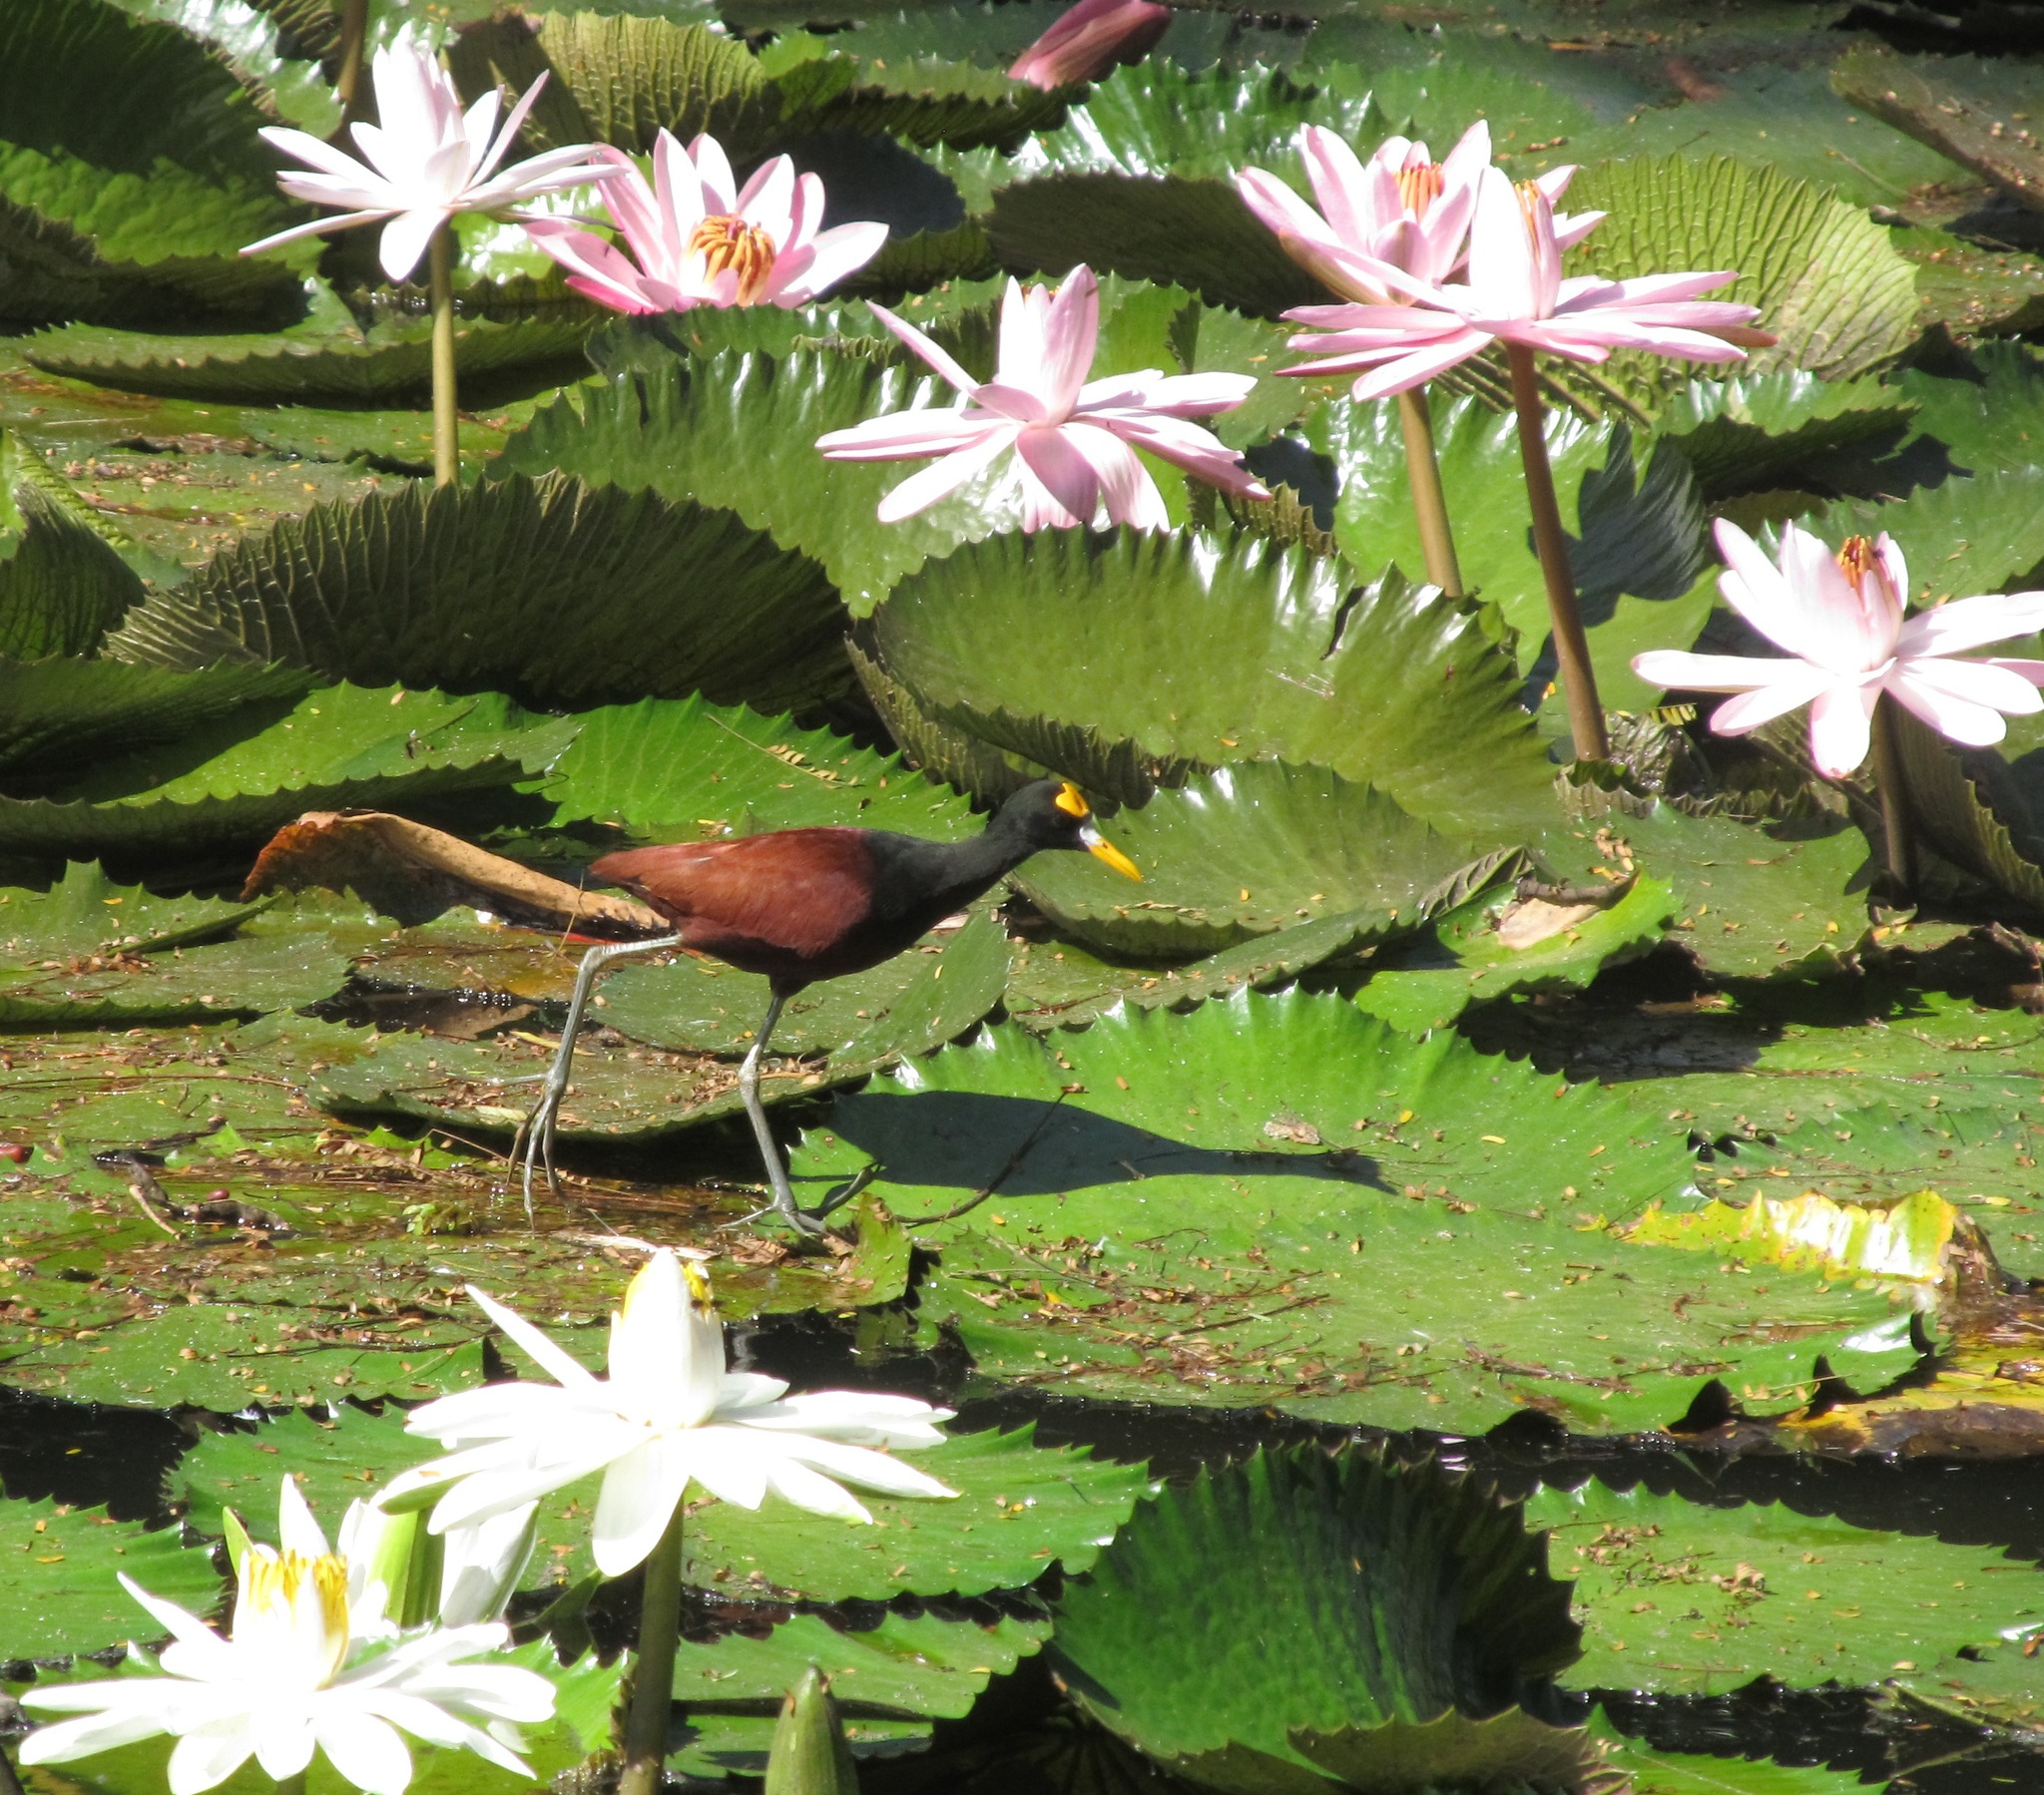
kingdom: Animalia
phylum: Chordata
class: Aves
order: Charadriiformes
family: Jacanidae
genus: Jacana
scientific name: Jacana spinosa
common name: Northern jacana
